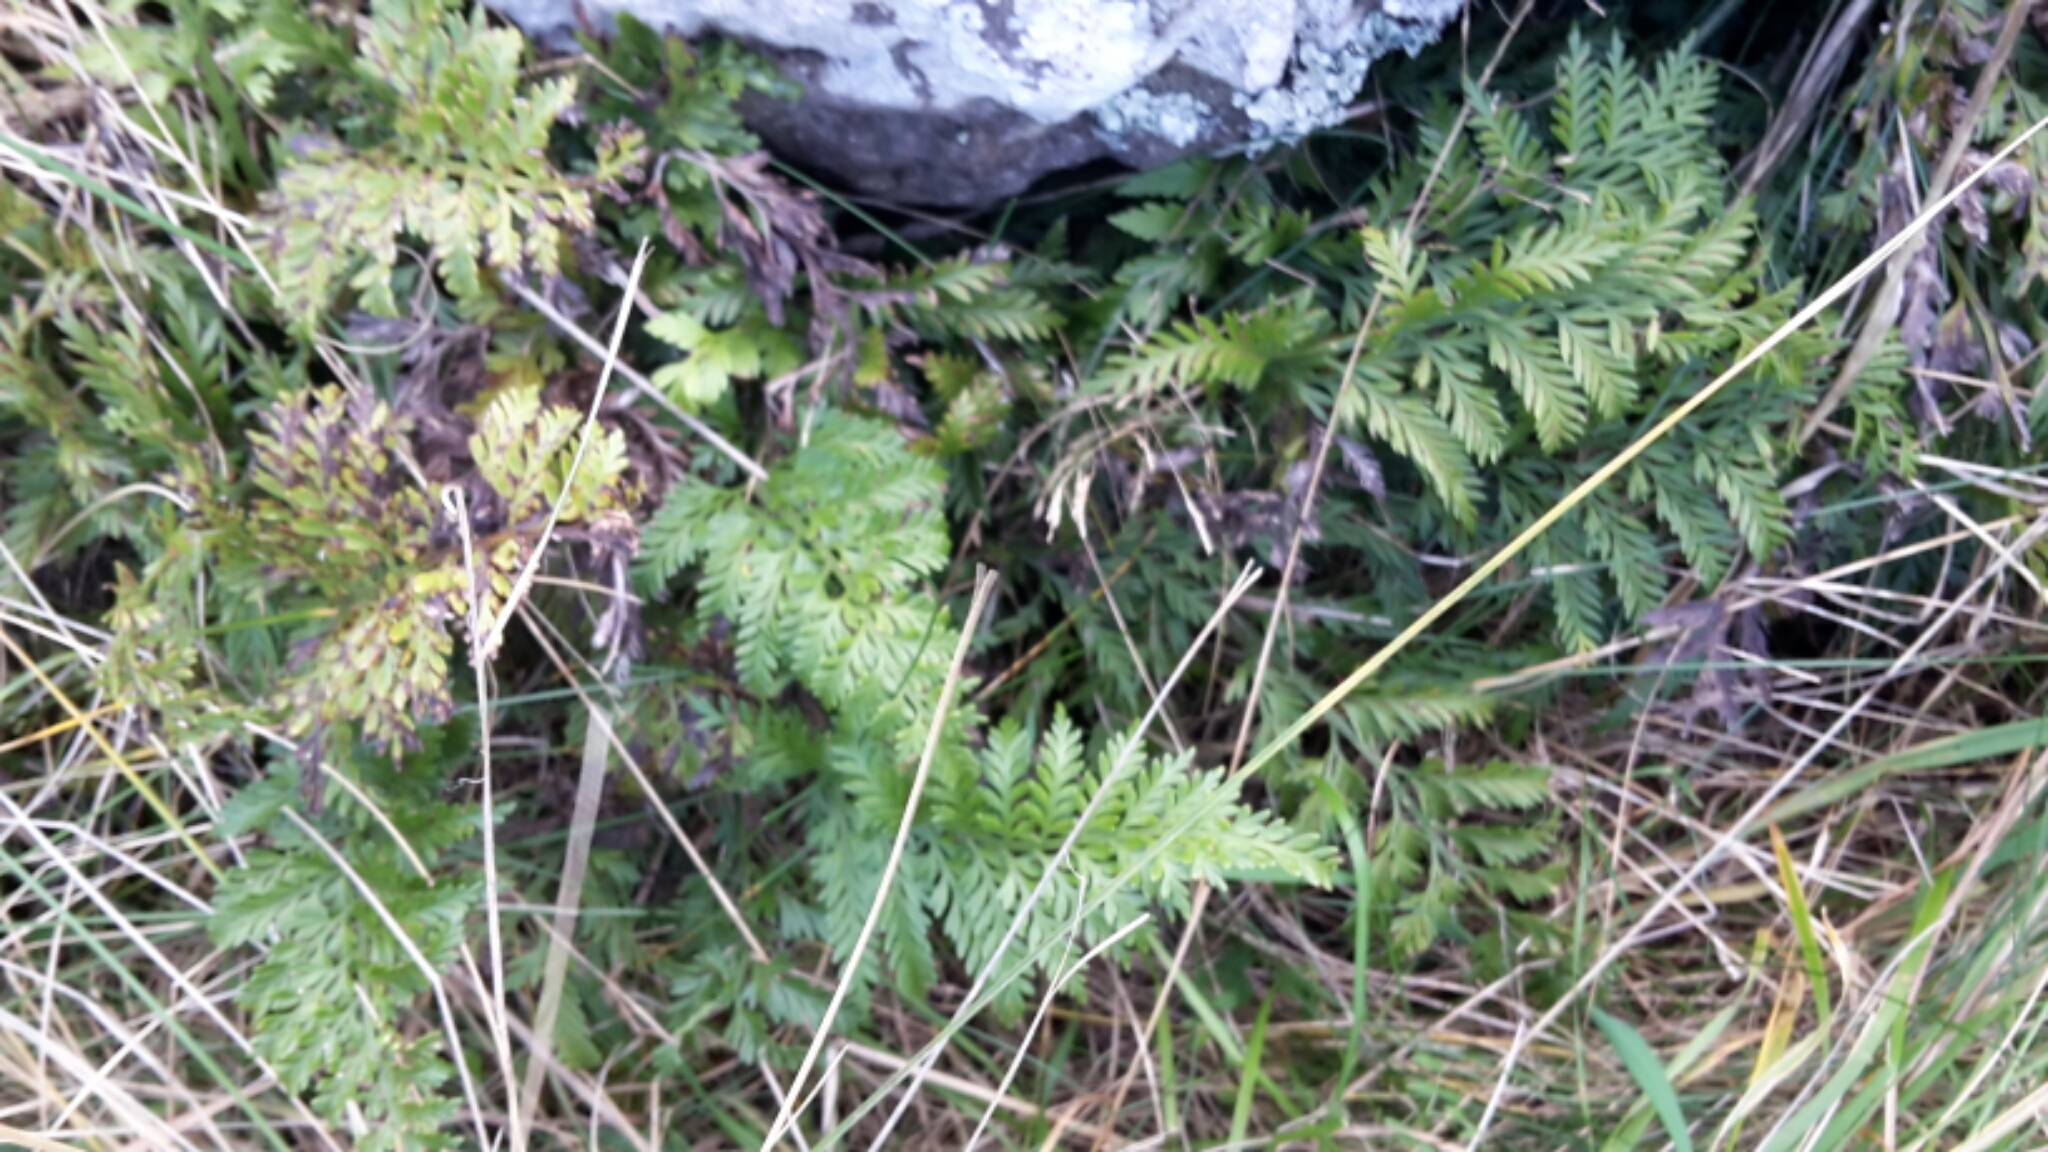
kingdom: Plantae
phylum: Tracheophyta
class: Polypodiopsida
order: Polypodiales
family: Aspleniaceae
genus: Asplenium
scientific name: Asplenium appendiculatum
